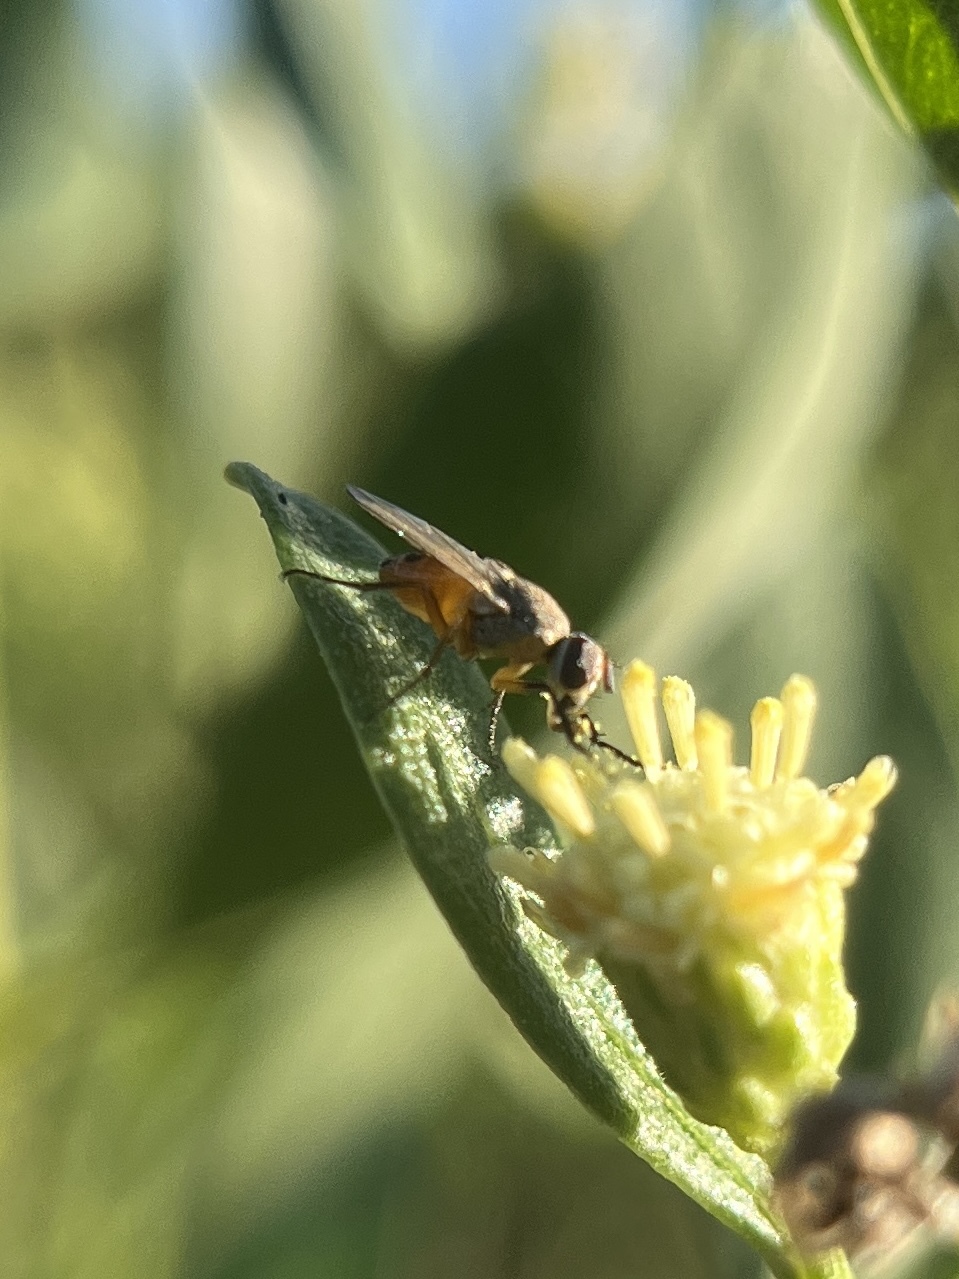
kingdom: Animalia
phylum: Arthropoda
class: Insecta
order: Diptera
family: Muscidae
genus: Atherigona
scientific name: Atherigona reversura
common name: Bermudagrass stem maggot
